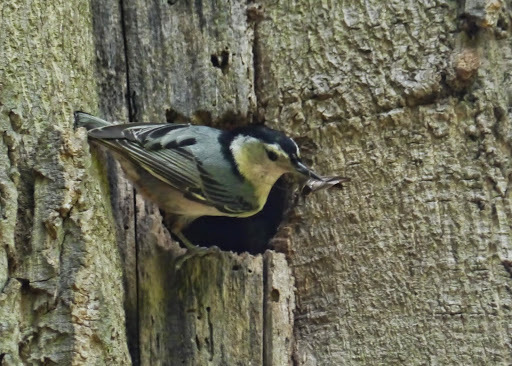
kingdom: Animalia
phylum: Chordata
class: Aves
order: Passeriformes
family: Sittidae
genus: Sitta
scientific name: Sitta carolinensis
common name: White-breasted nuthatch
